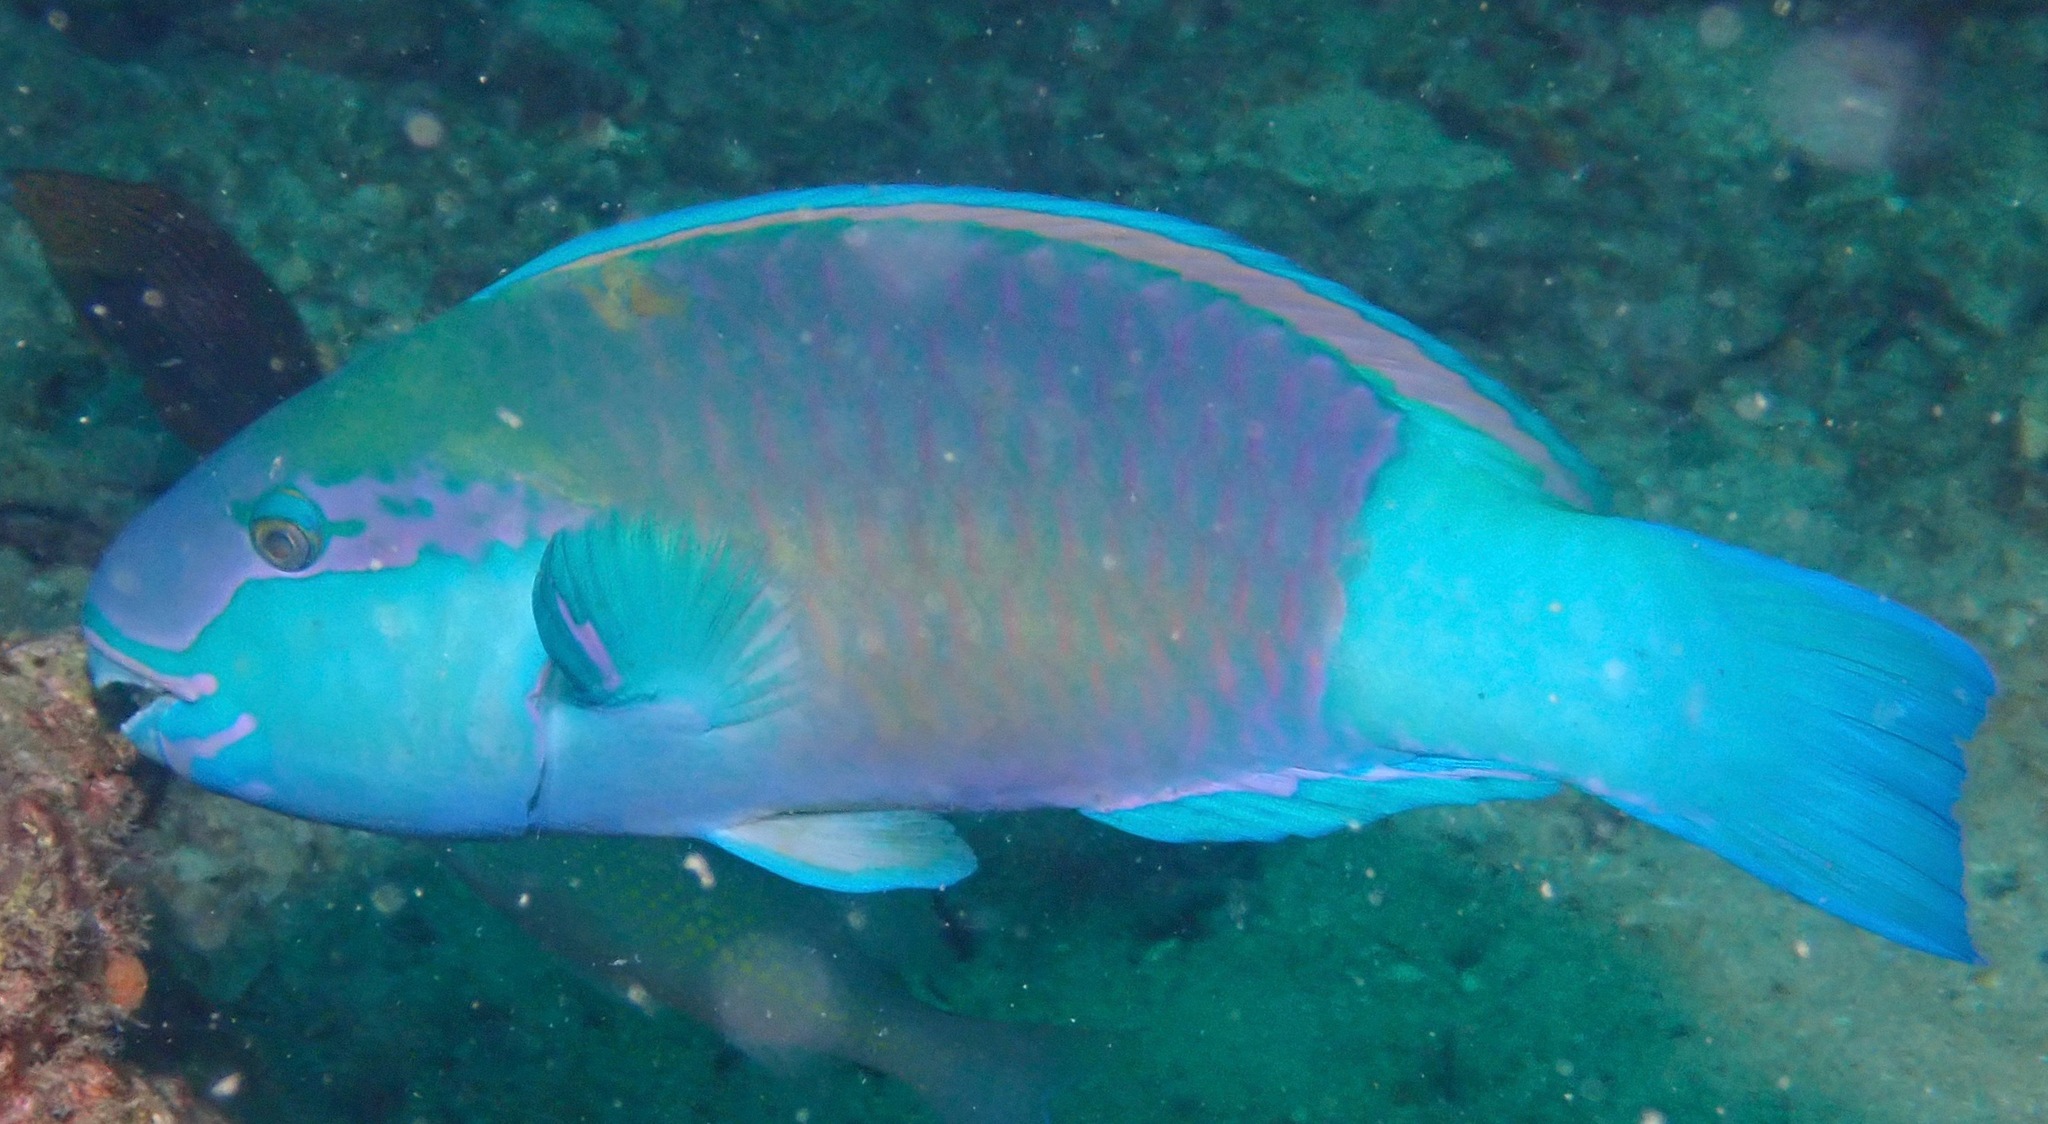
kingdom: Animalia
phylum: Chordata
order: Perciformes
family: Scaridae
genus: Chlorurus
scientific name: Chlorurus sordidus
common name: Bullethead parrotfish
